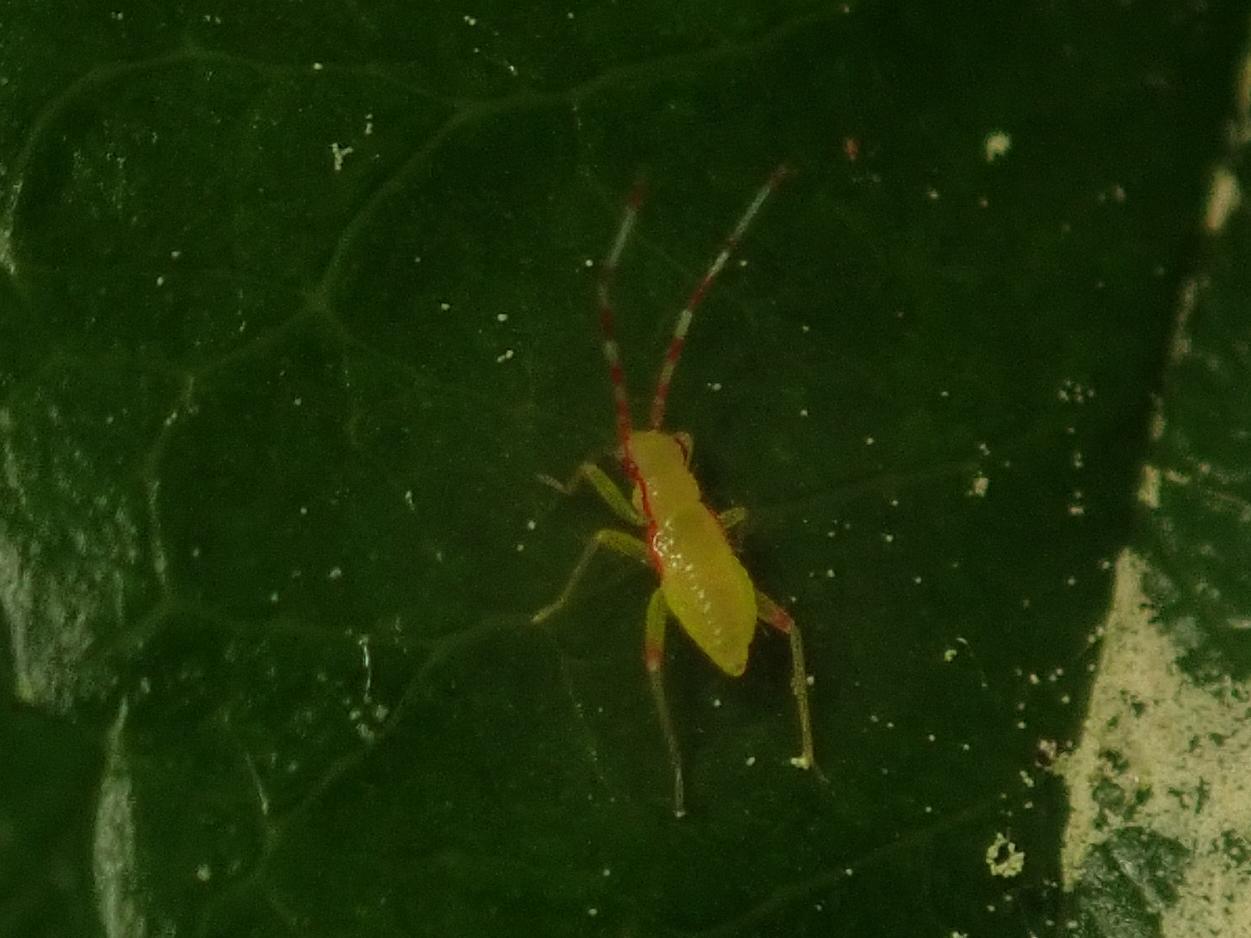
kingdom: Animalia
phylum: Arthropoda
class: Insecta
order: Hemiptera
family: Miridae
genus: Campyloneura
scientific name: Campyloneura virgula
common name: Predatory bug
